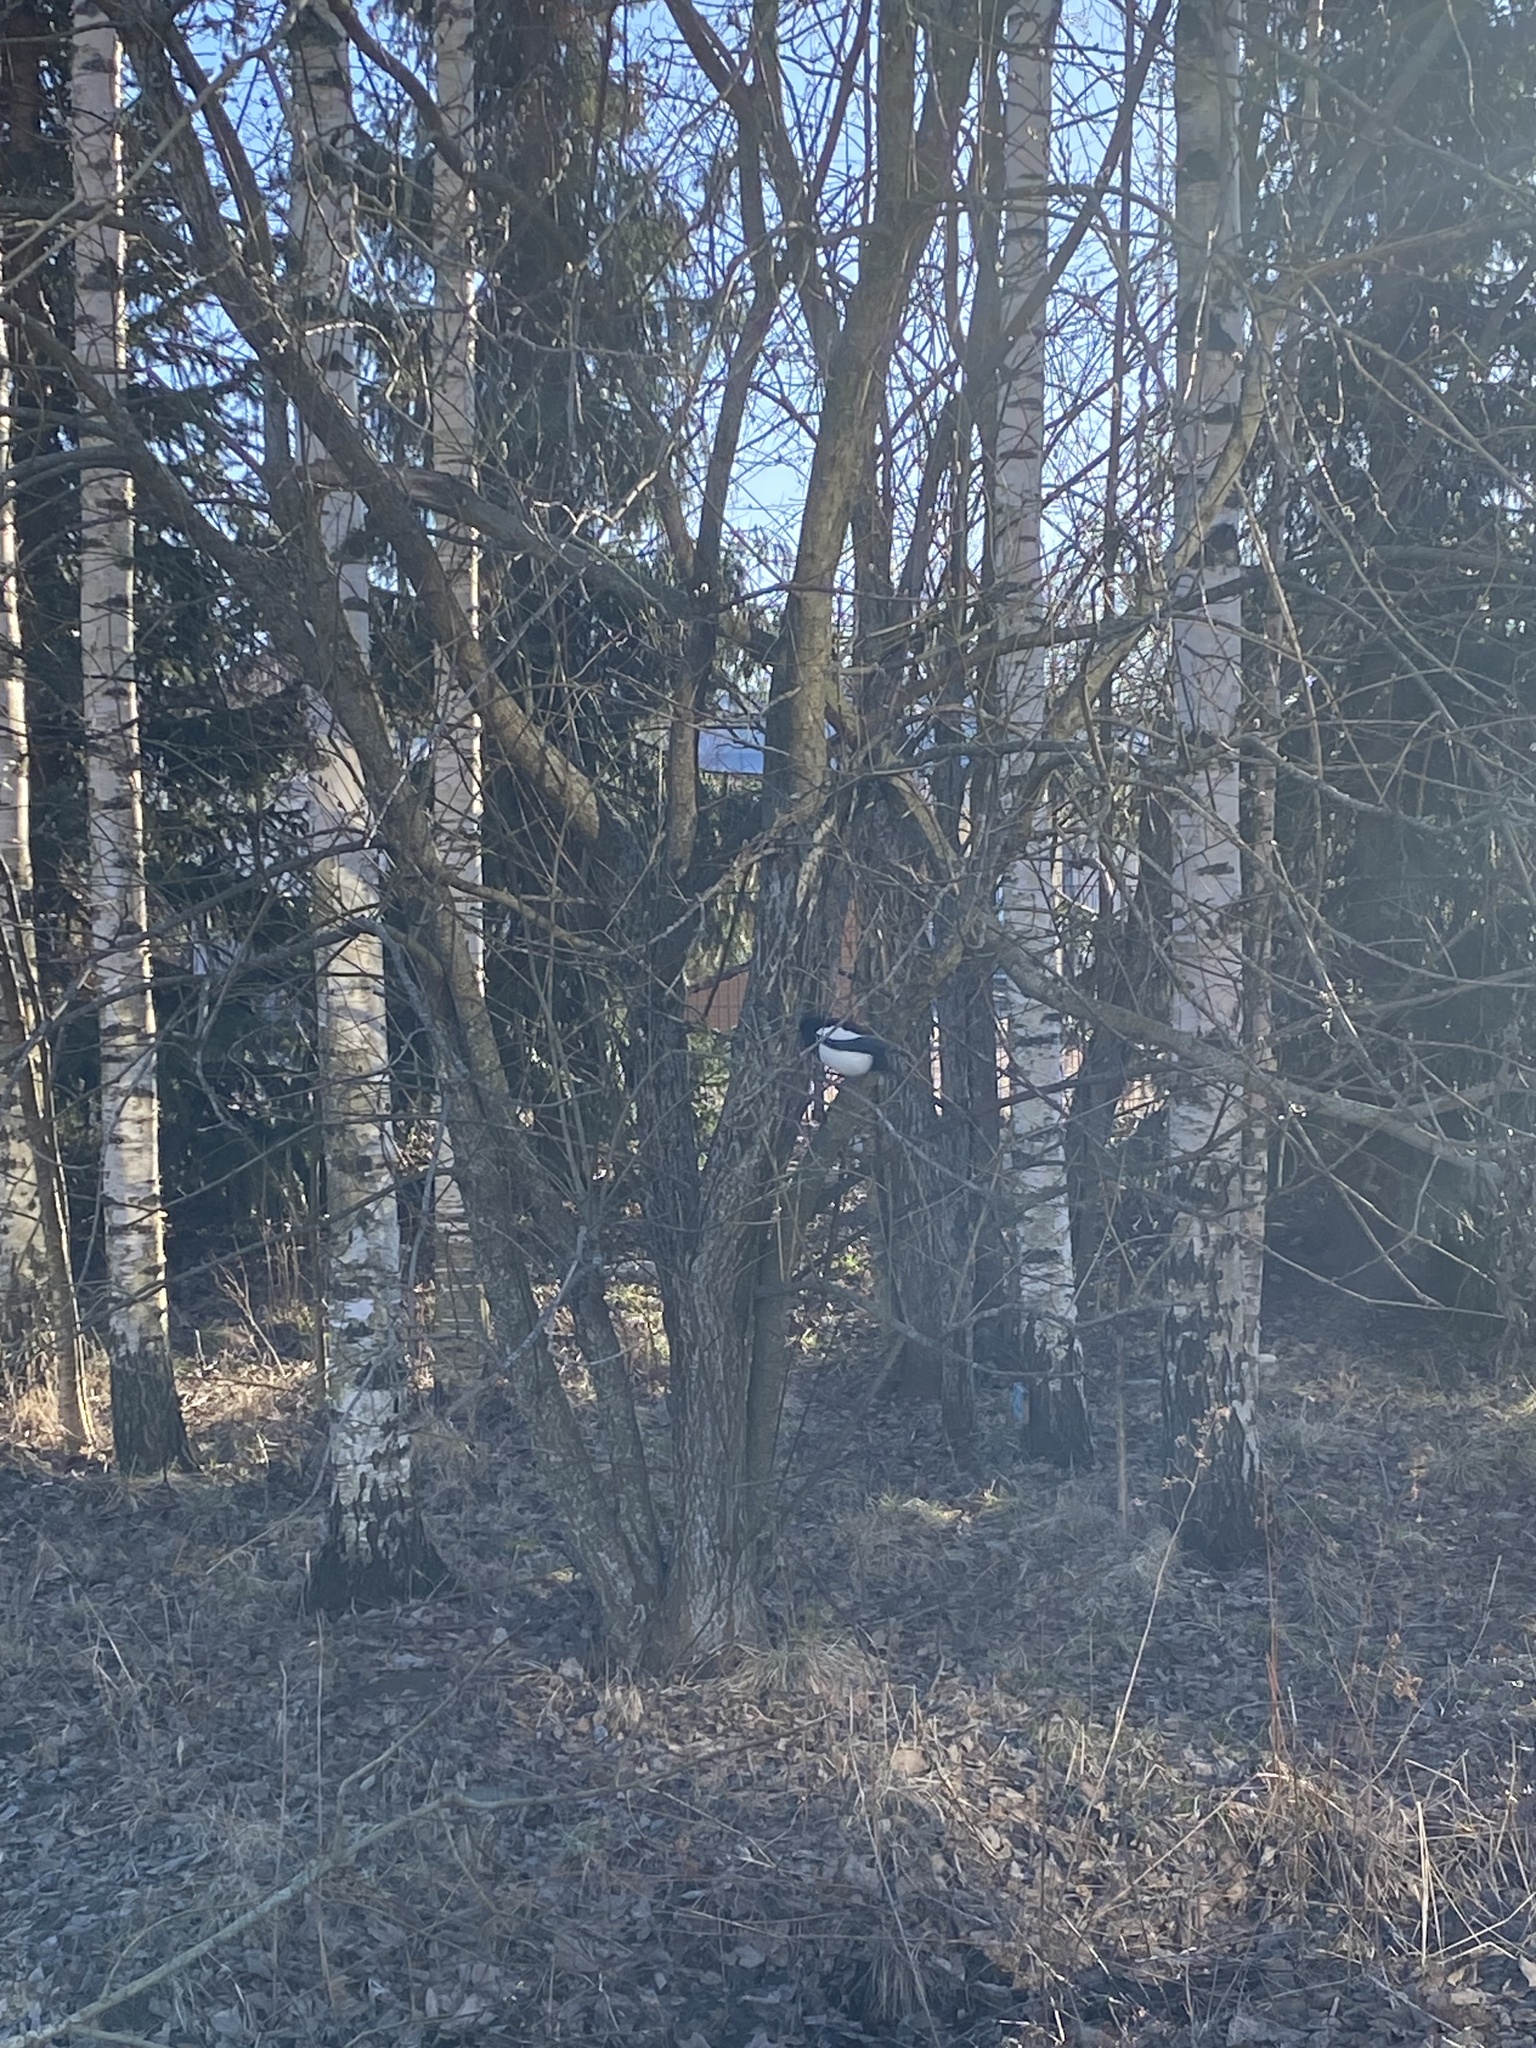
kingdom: Animalia
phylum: Chordata
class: Aves
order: Passeriformes
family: Corvidae
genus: Pica
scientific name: Pica pica
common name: Eurasian magpie
